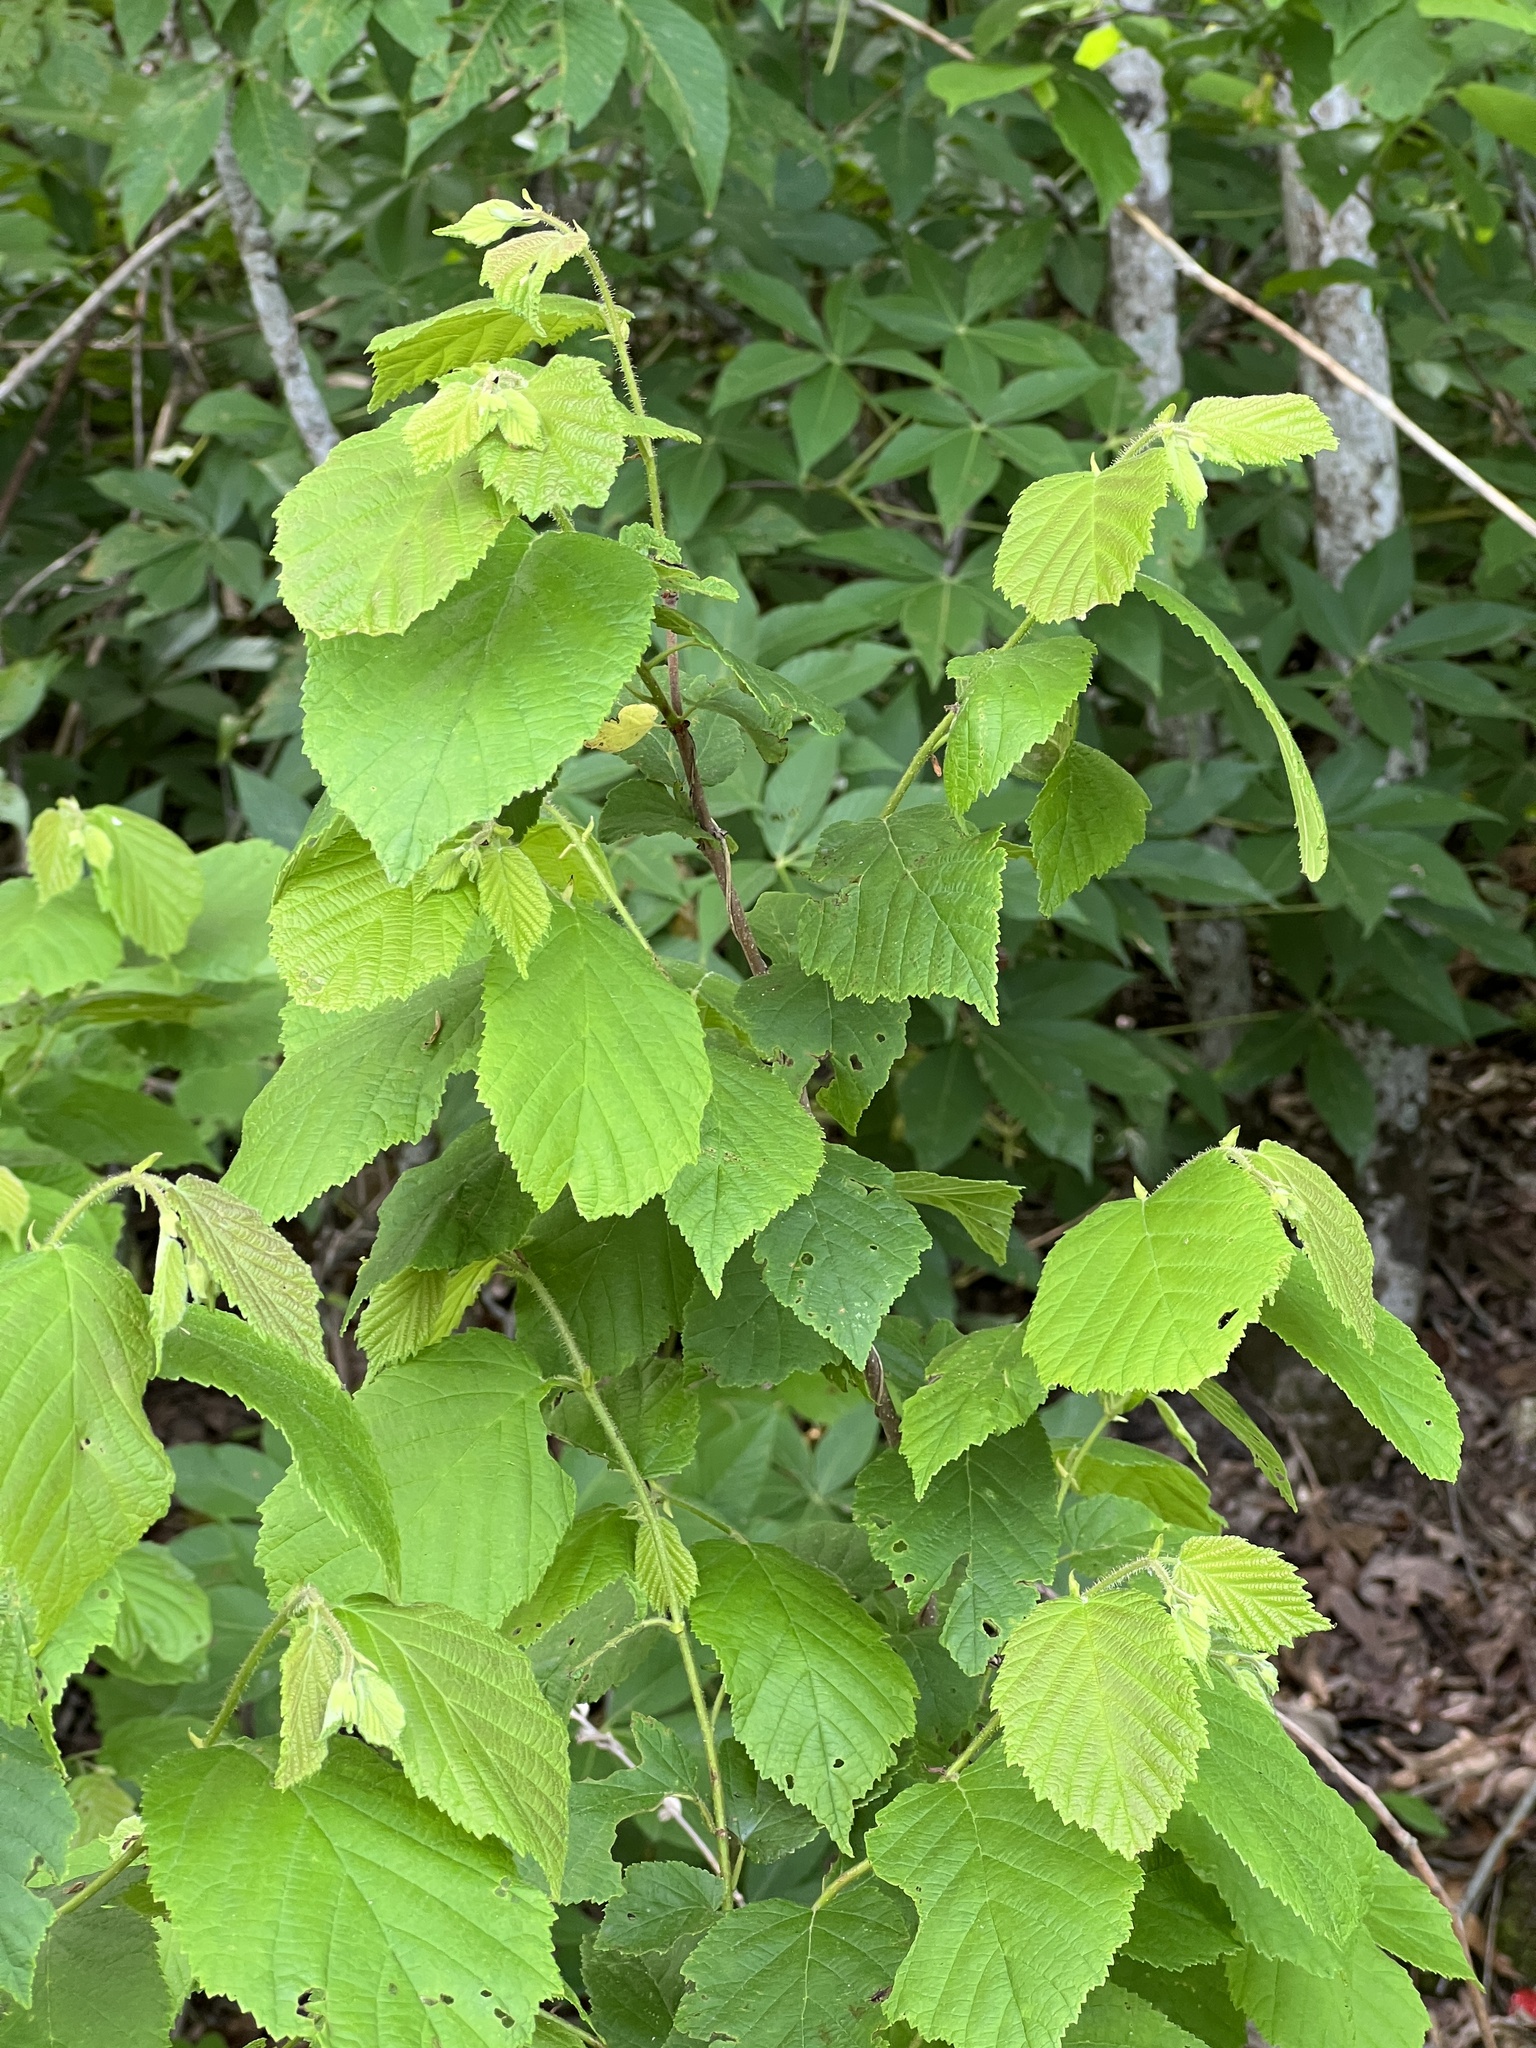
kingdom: Plantae
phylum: Tracheophyta
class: Magnoliopsida
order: Fagales
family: Betulaceae
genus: Corylus
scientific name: Corylus americana
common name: American hazel
